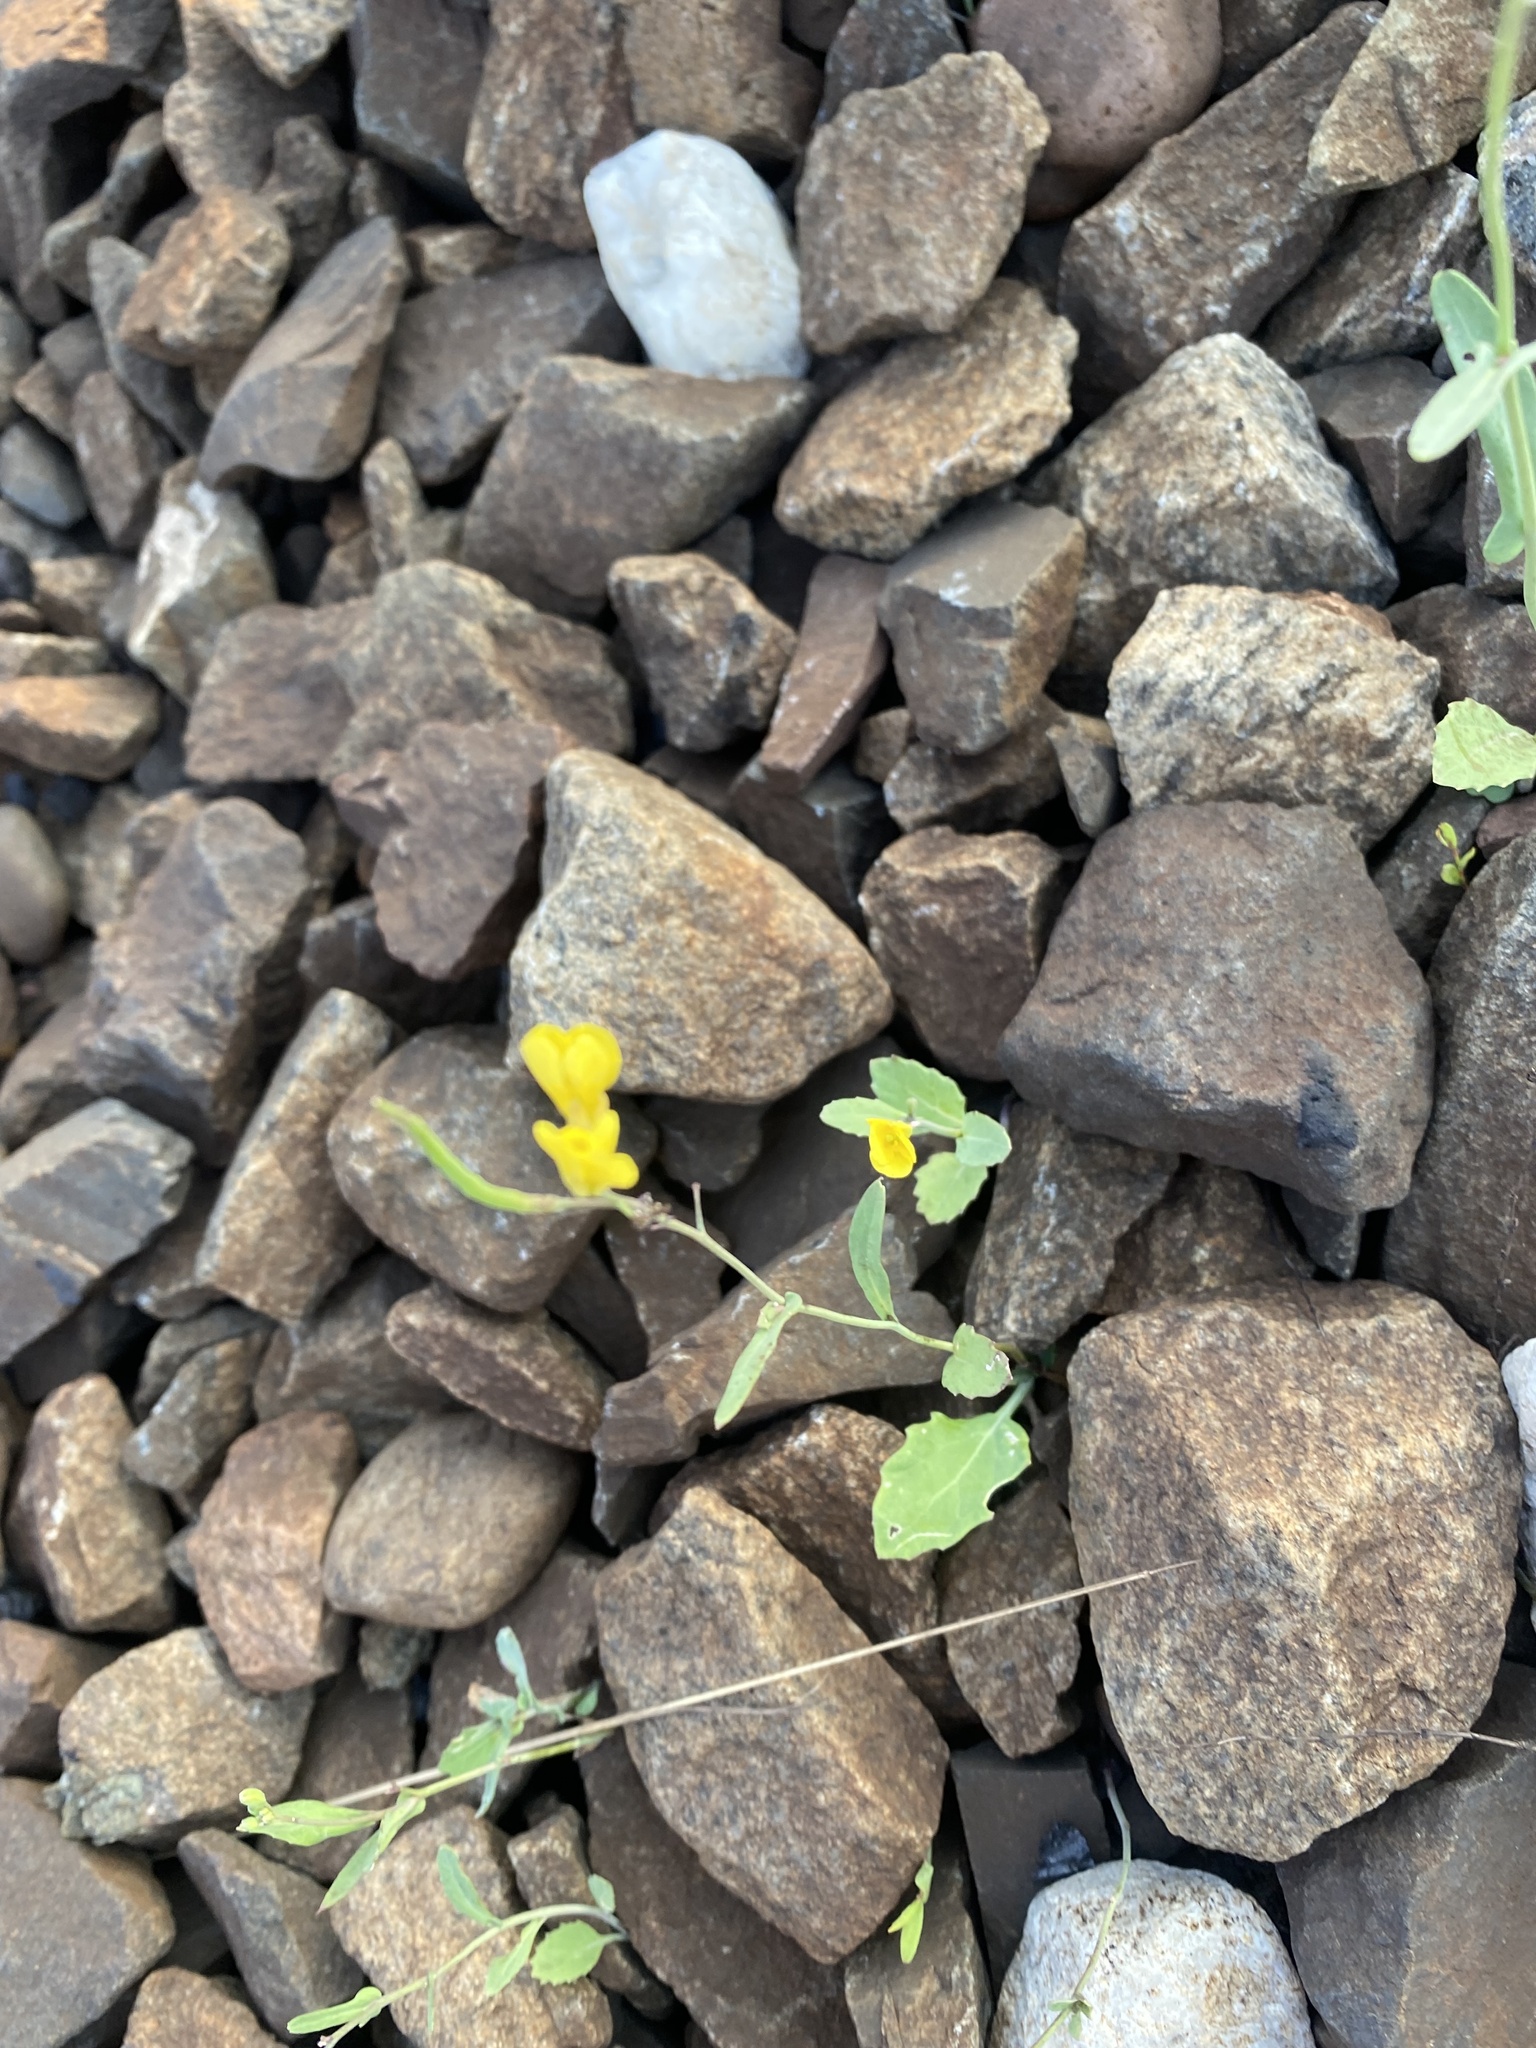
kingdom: Plantae
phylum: Tracheophyta
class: Magnoliopsida
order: Brassicales
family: Brassicaceae
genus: Brassica
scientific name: Brassica rapa
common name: Field mustard
